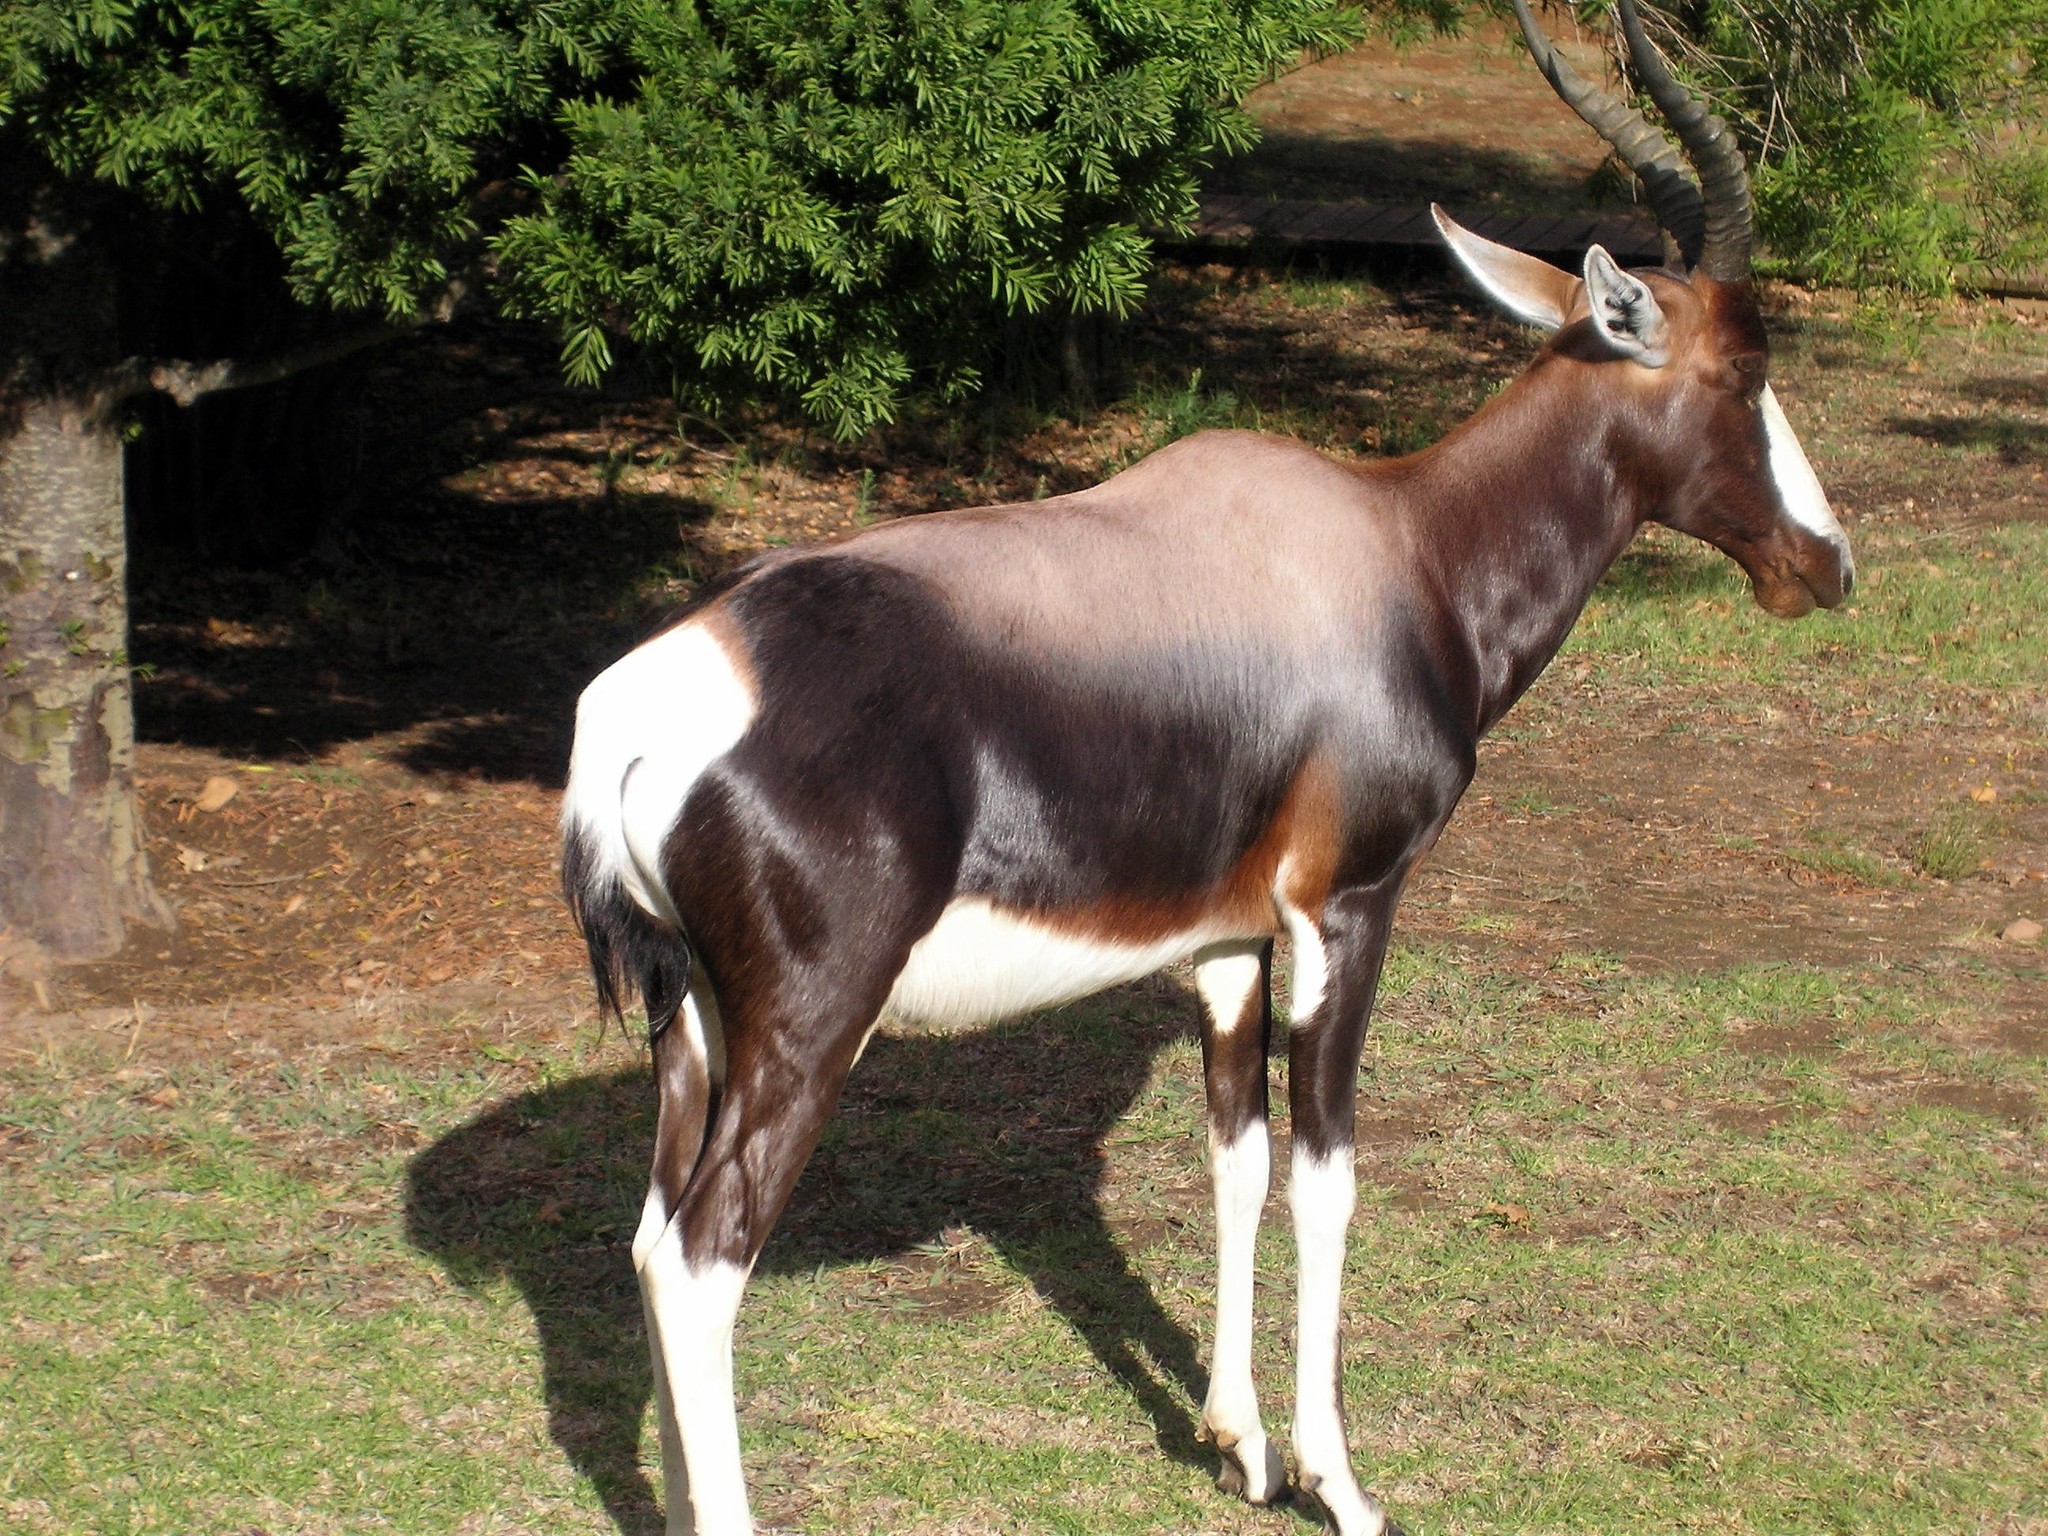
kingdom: Animalia
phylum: Chordata
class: Mammalia
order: Artiodactyla
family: Bovidae
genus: Damaliscus
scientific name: Damaliscus pygargus
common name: Bontebok
